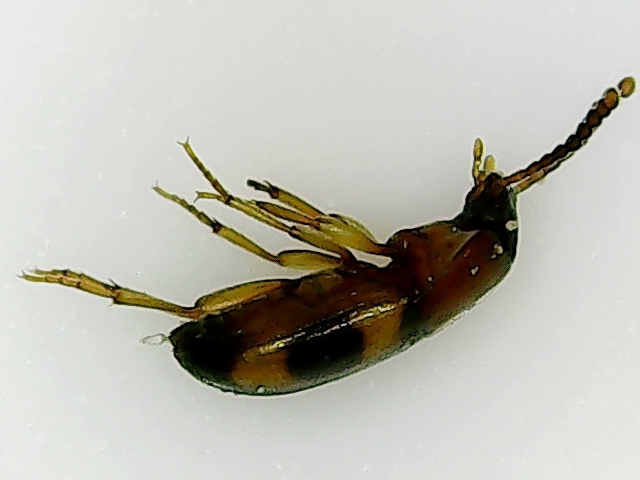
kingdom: Animalia
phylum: Arthropoda
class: Insecta
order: Coleoptera
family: Tenebrionidae
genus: Poecilocrypticus
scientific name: Poecilocrypticus formicophilus
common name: Darkling beetle
